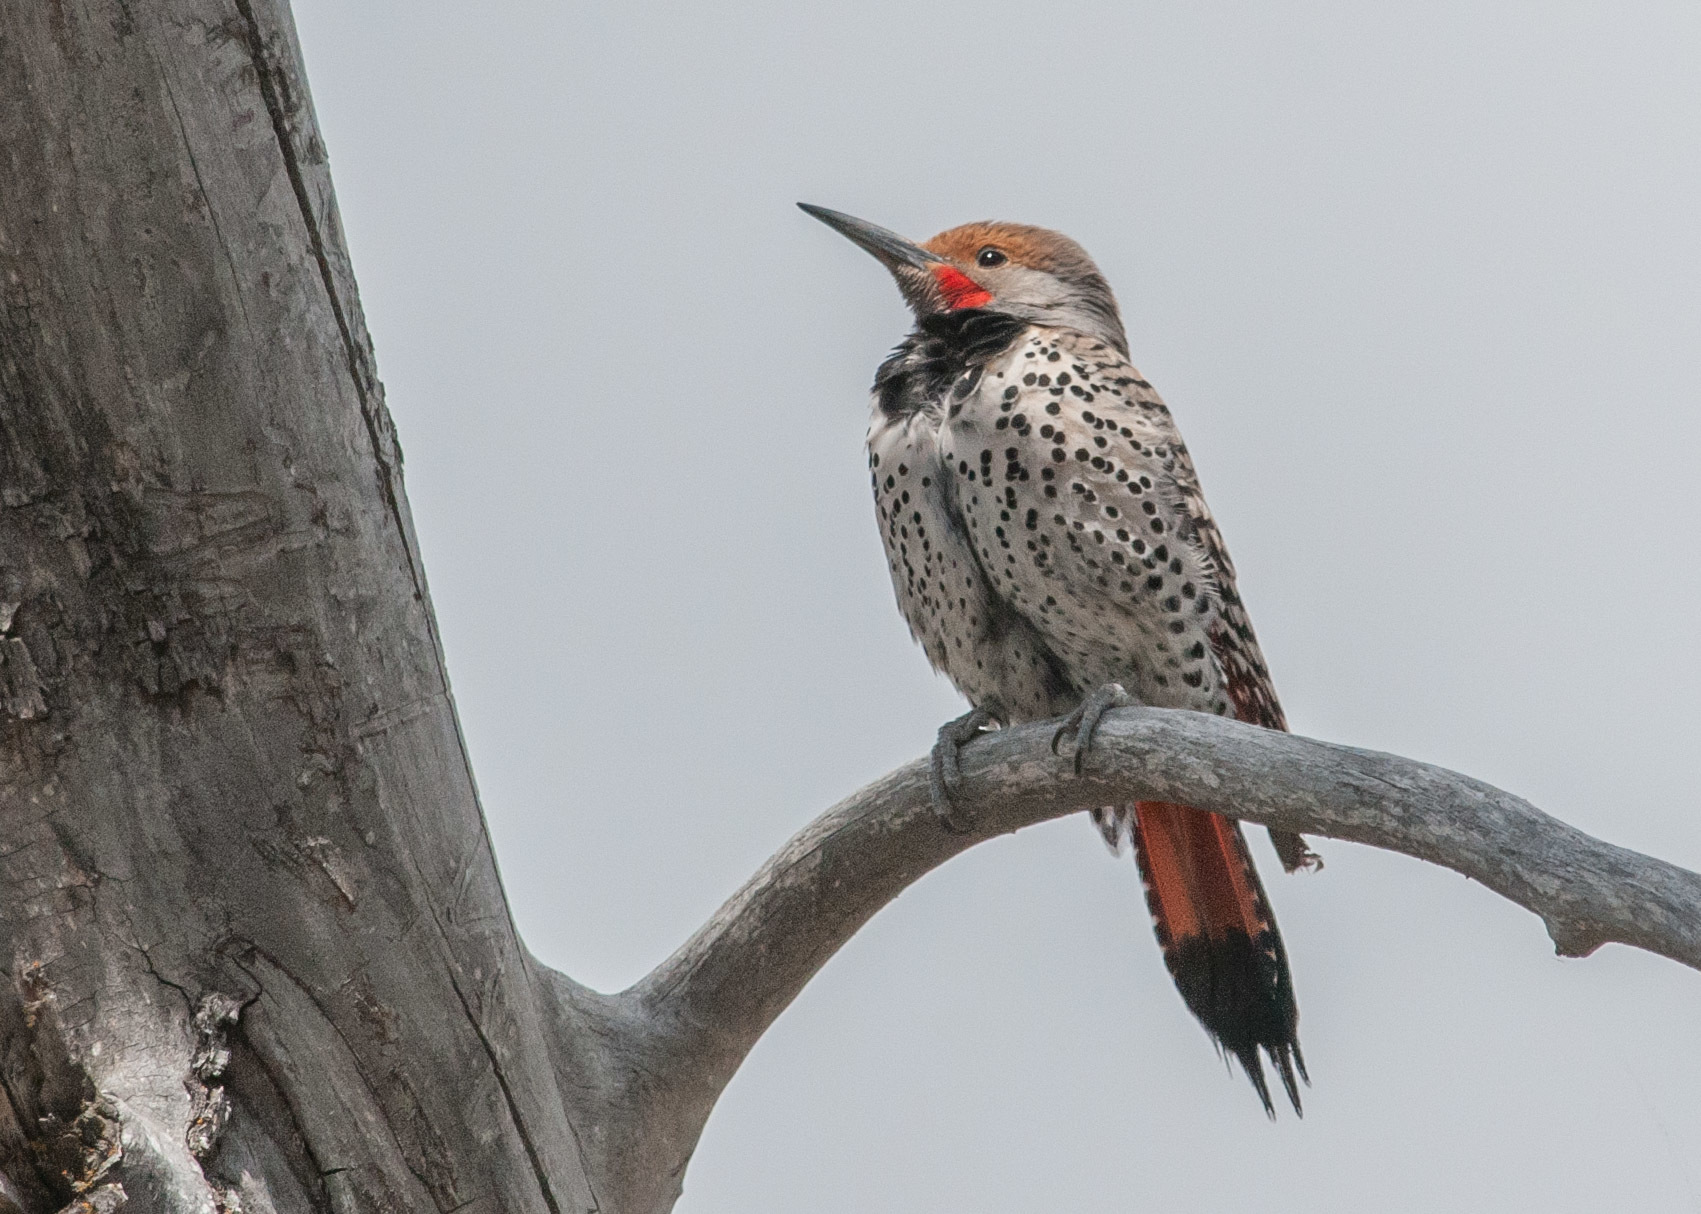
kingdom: Animalia
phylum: Chordata
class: Aves
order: Piciformes
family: Picidae
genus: Colaptes
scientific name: Colaptes auratus
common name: Northern flicker
